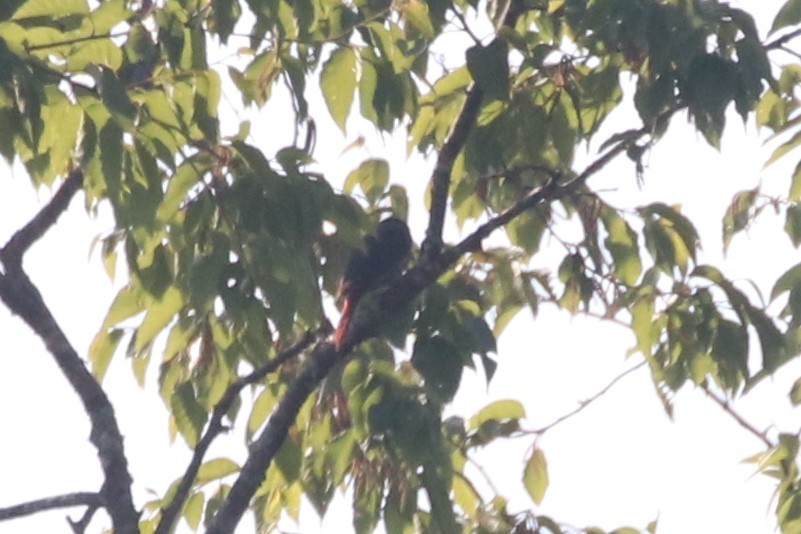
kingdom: Animalia
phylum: Chordata
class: Aves
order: Passeriformes
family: Oriolidae
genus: Oriolus
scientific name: Oriolus traillii
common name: Maroon oriole
